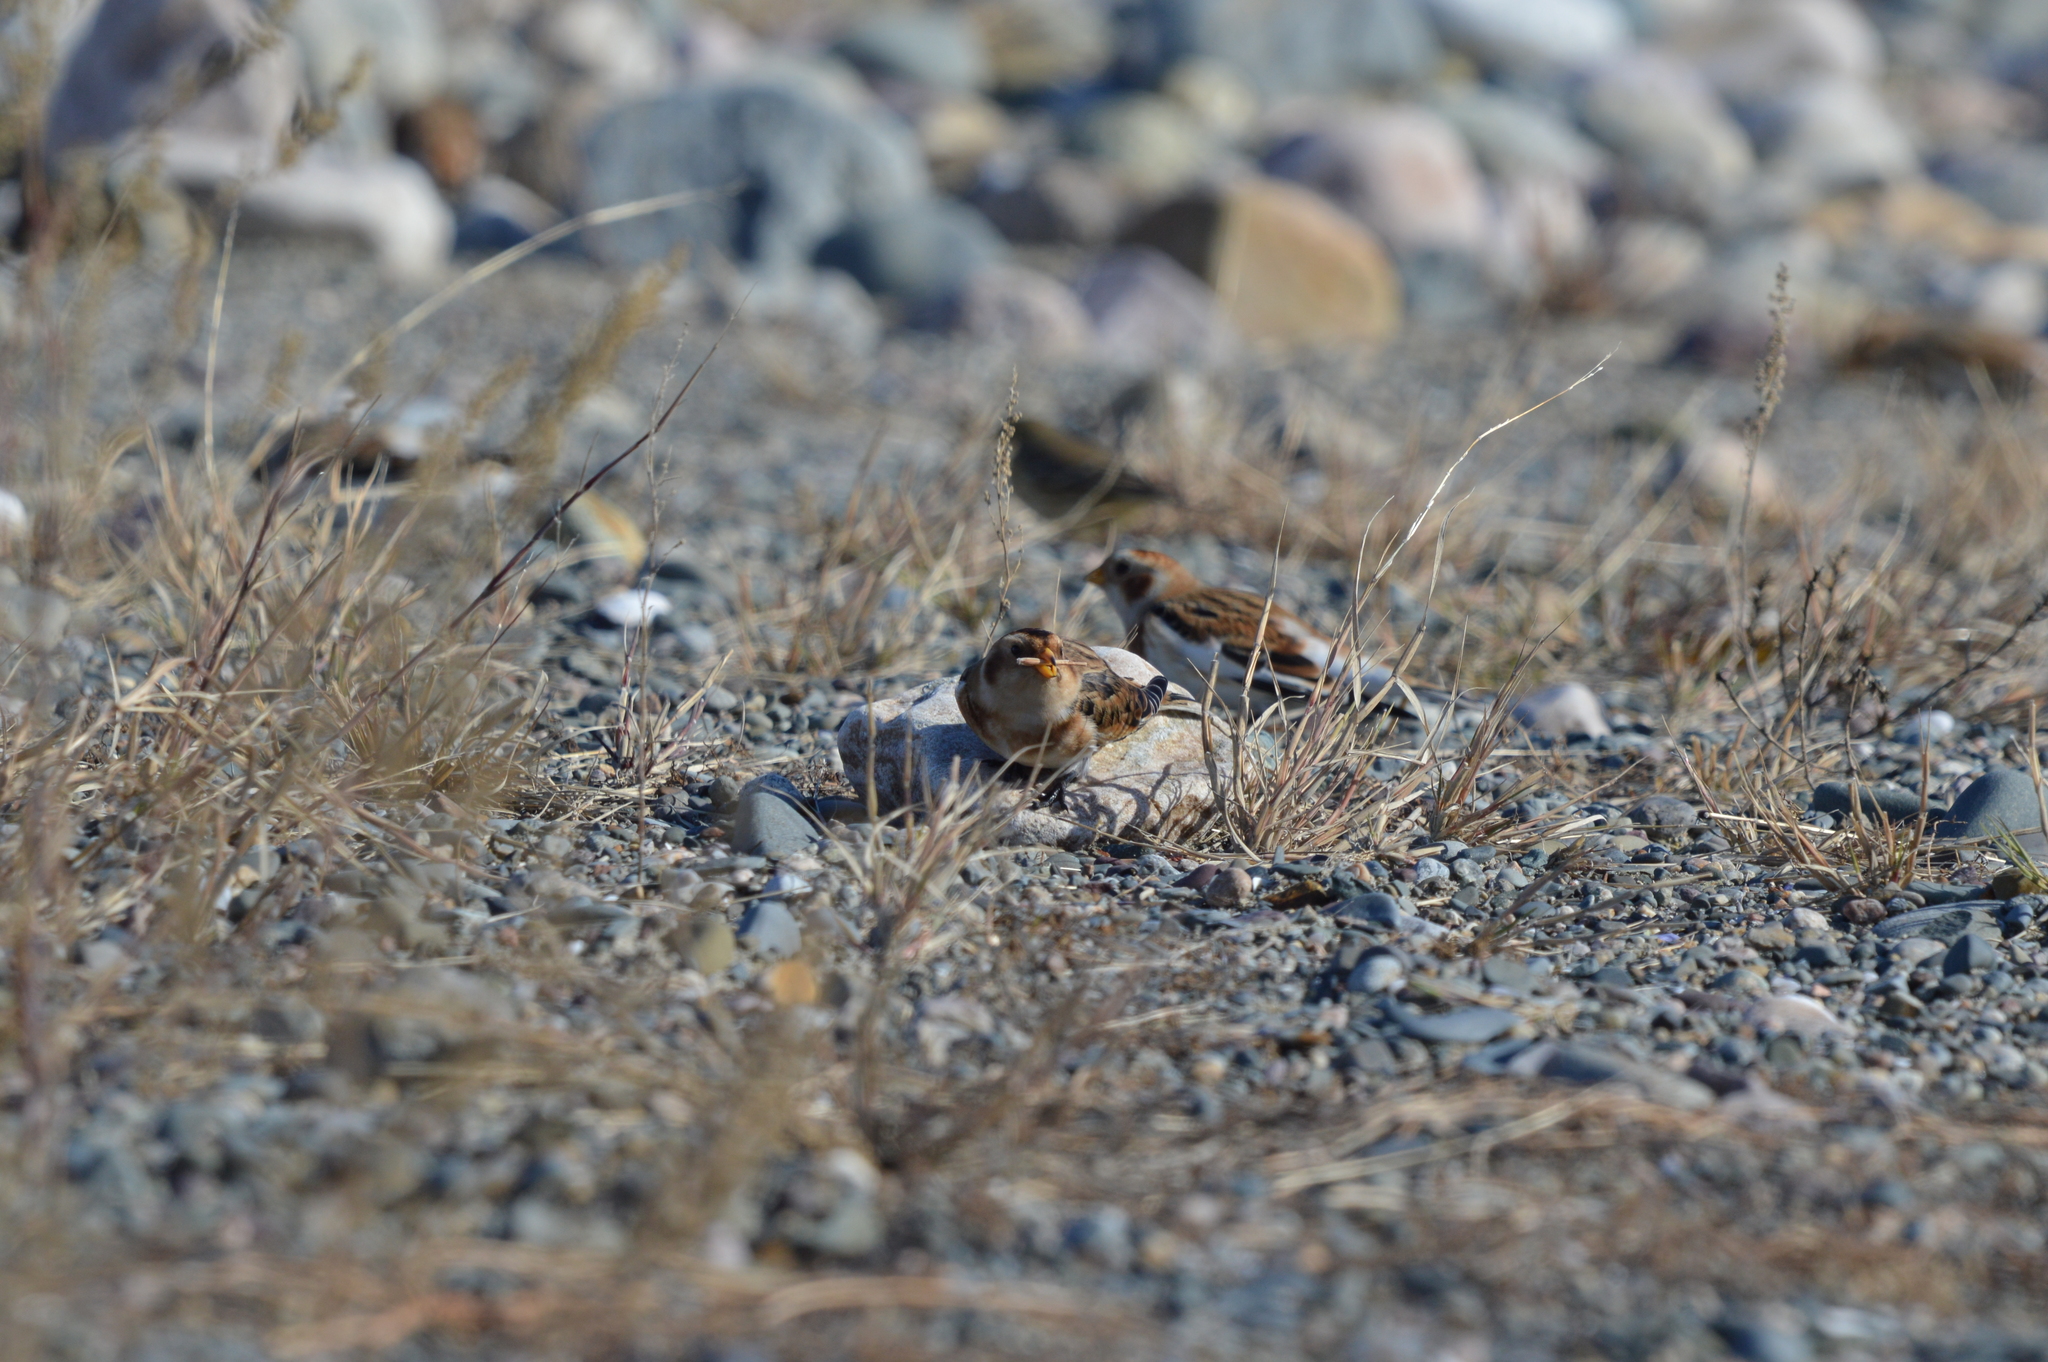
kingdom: Animalia
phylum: Chordata
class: Aves
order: Passeriformes
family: Calcariidae
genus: Plectrophenax
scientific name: Plectrophenax nivalis
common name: Snow bunting
